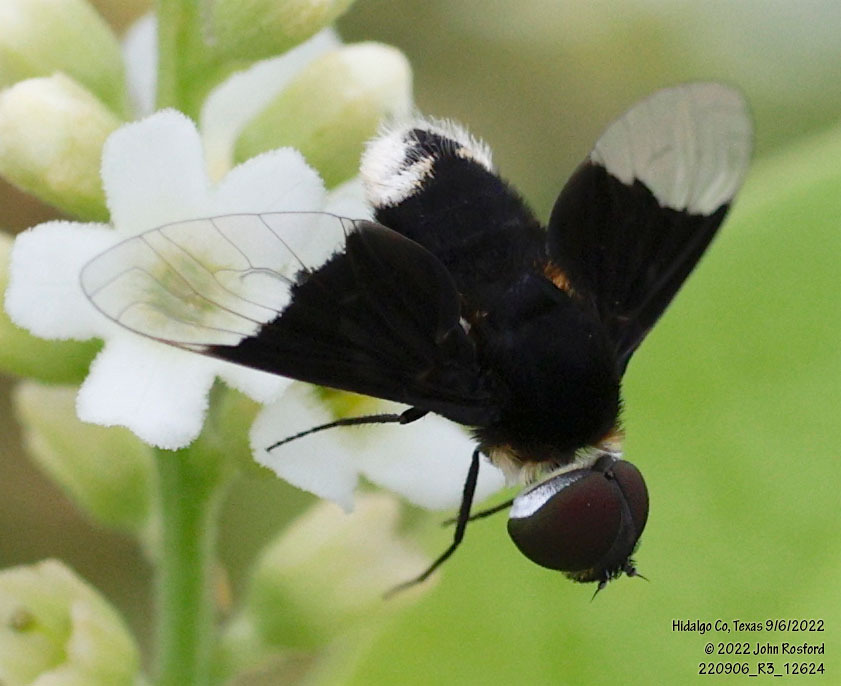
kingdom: Animalia
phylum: Arthropoda
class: Insecta
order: Diptera
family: Bombyliidae
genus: Ins
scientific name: Ins celeris
